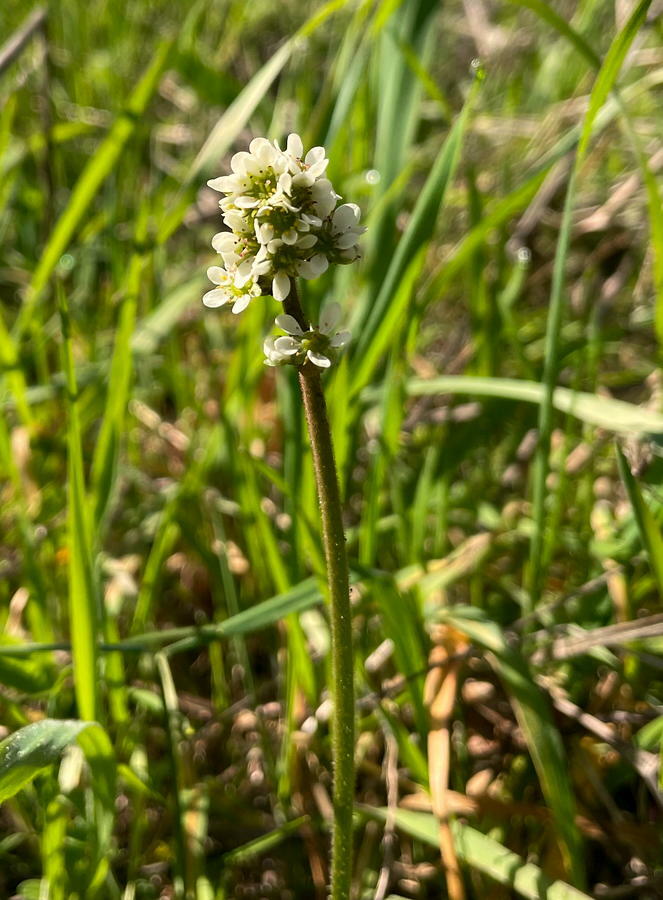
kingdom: Plantae
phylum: Tracheophyta
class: Magnoliopsida
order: Saxifragales
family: Saxifragaceae
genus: Micranthes
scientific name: Micranthes integrifolia
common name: Wholeleaf saxifrage
